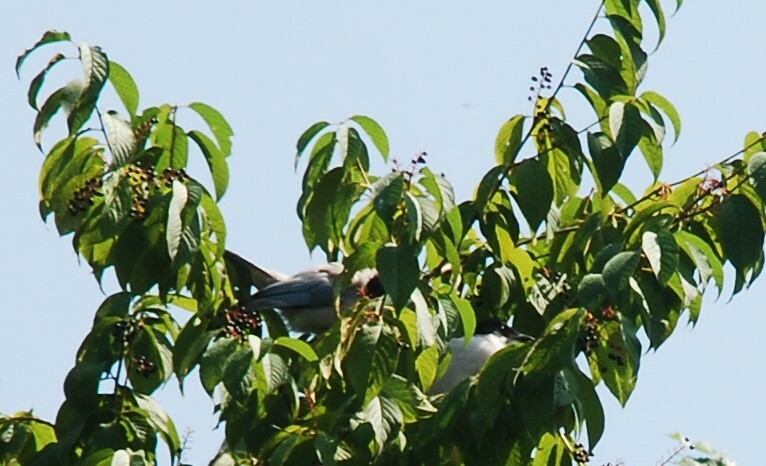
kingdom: Animalia
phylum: Chordata
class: Aves
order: Passeriformes
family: Corvidae
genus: Cyanopica
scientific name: Cyanopica cyanus
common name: Azure-winged magpie
